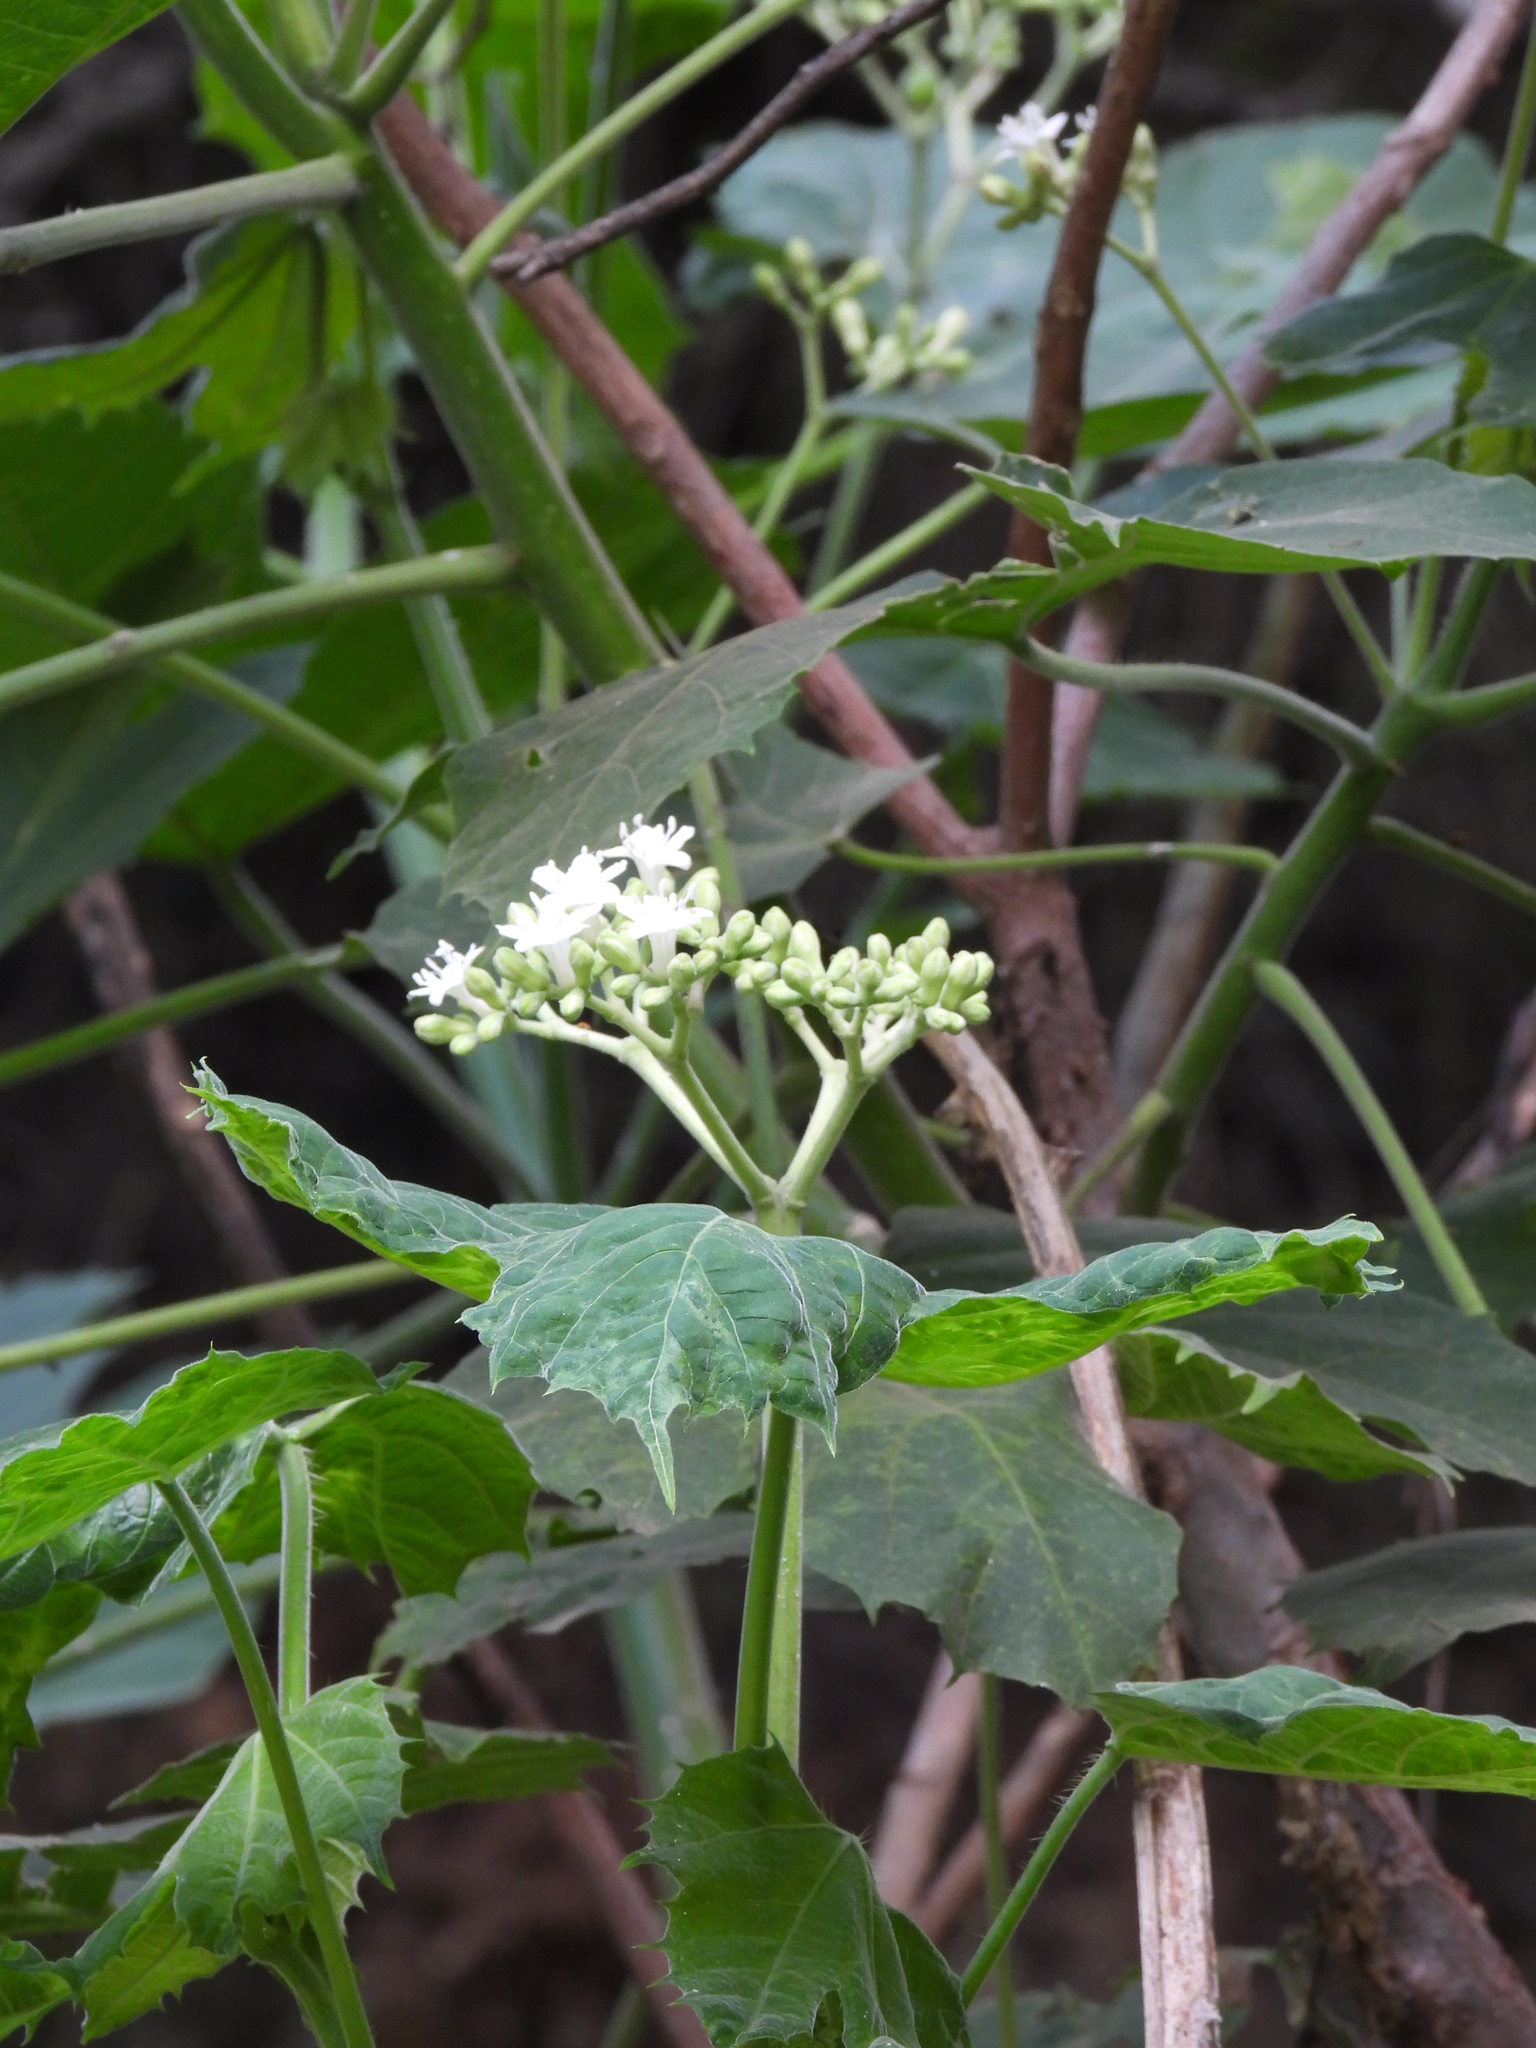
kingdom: Plantae
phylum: Tracheophyta
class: Magnoliopsida
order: Malpighiales
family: Euphorbiaceae
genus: Cnidoscolus
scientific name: Cnidoscolus multilobus
